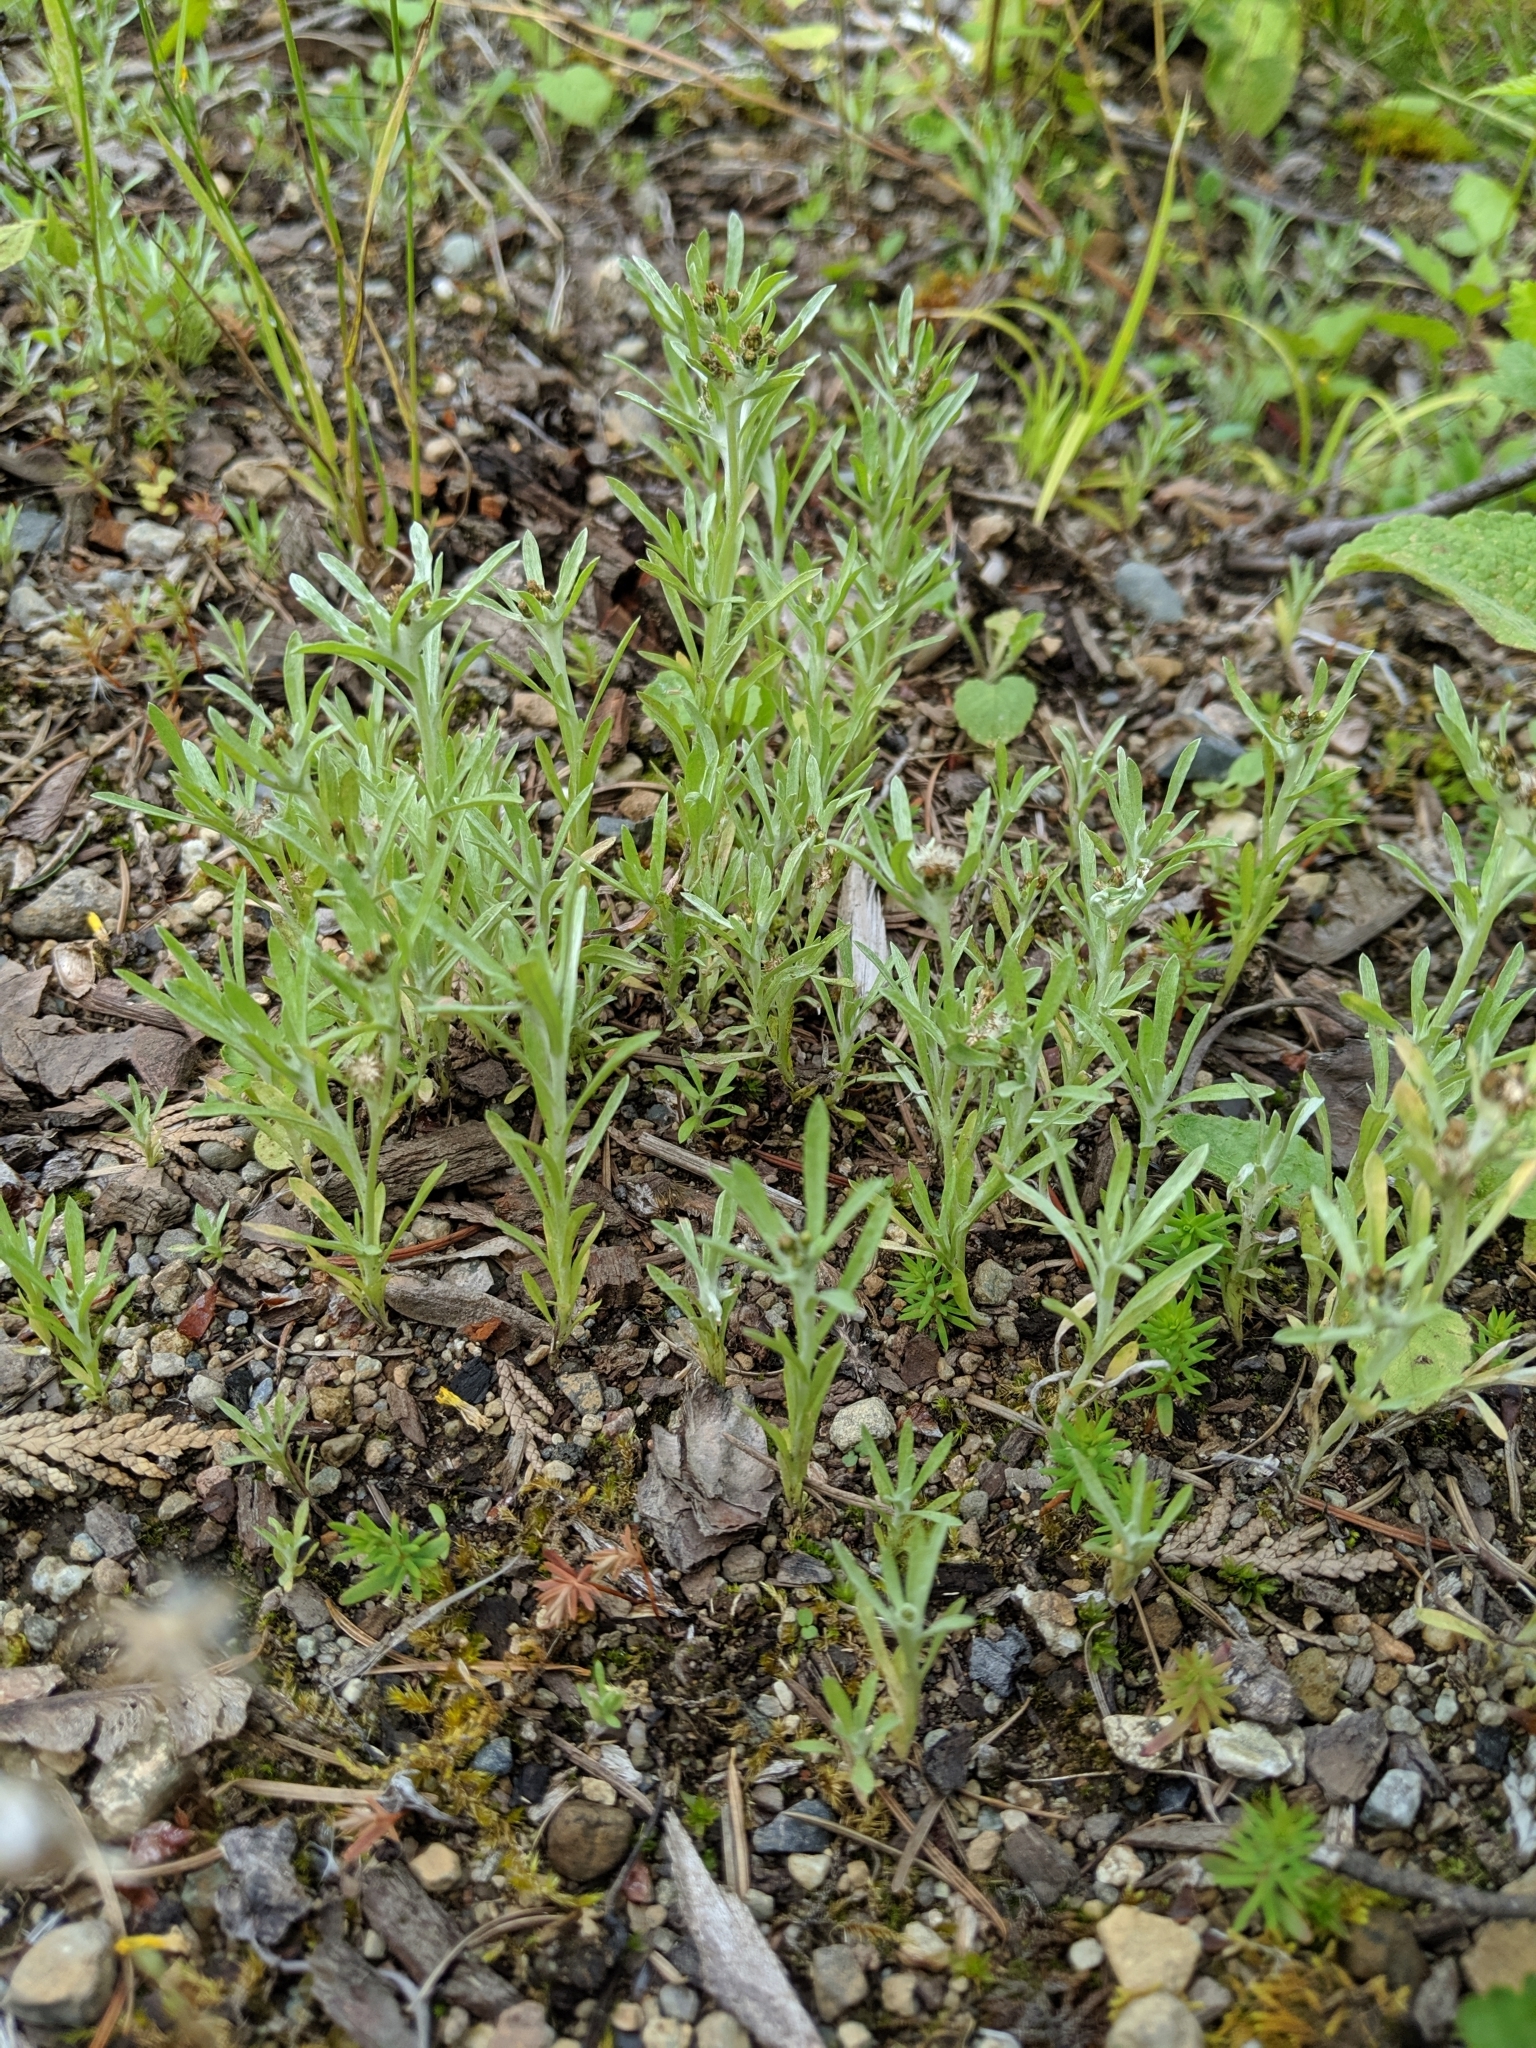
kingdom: Plantae
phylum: Tracheophyta
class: Magnoliopsida
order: Asterales
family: Asteraceae
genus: Gnaphalium
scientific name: Gnaphalium uliginosum
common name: Marsh cudweed
